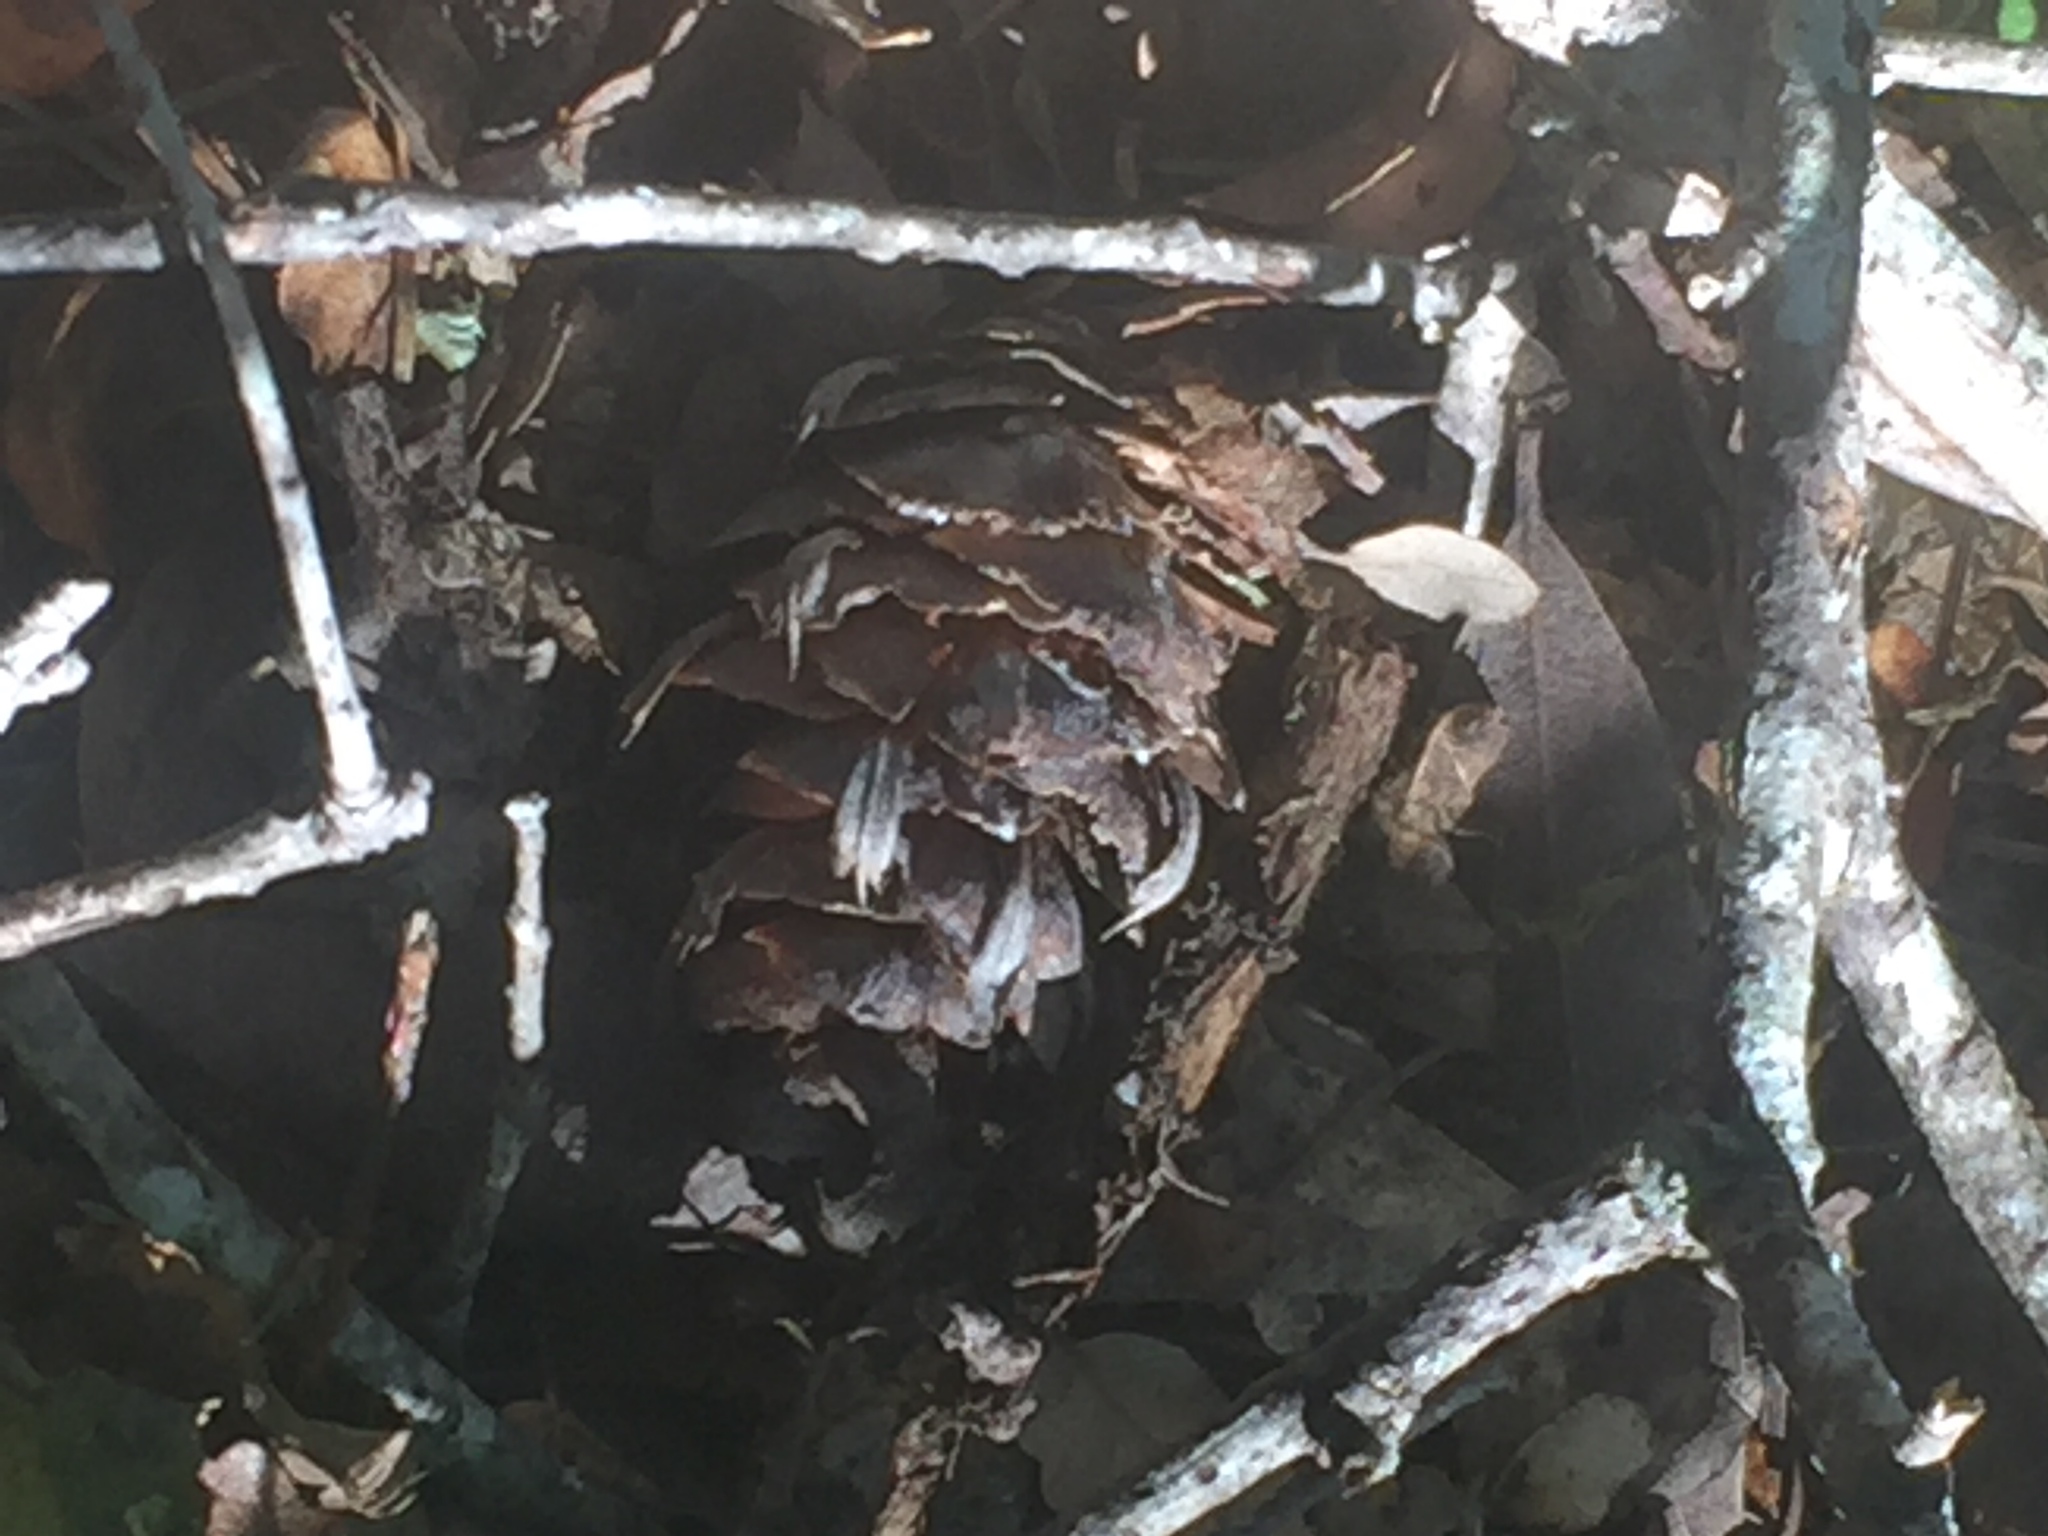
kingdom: Plantae
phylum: Tracheophyta
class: Pinopsida
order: Pinales
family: Pinaceae
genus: Pseudotsuga
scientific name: Pseudotsuga menziesii
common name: Douglas fir
